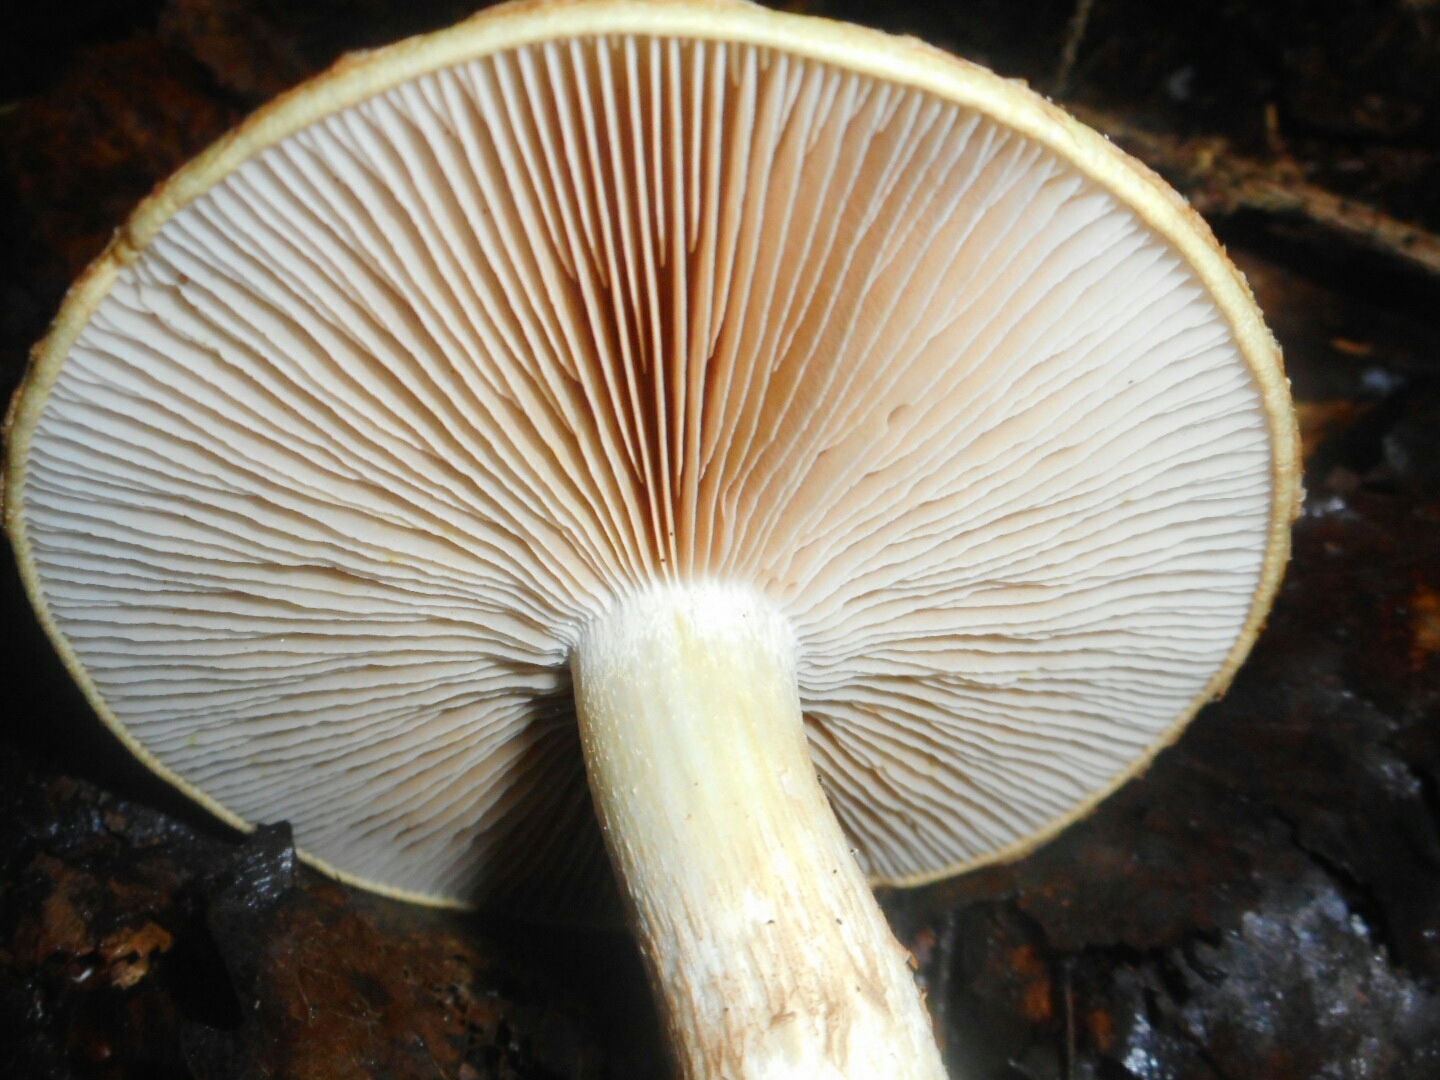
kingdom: Fungi
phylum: Basidiomycota
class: Agaricomycetes
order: Agaricales
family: Cortinariaceae
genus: Phlegmacium
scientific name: Phlegmacium triumphans
